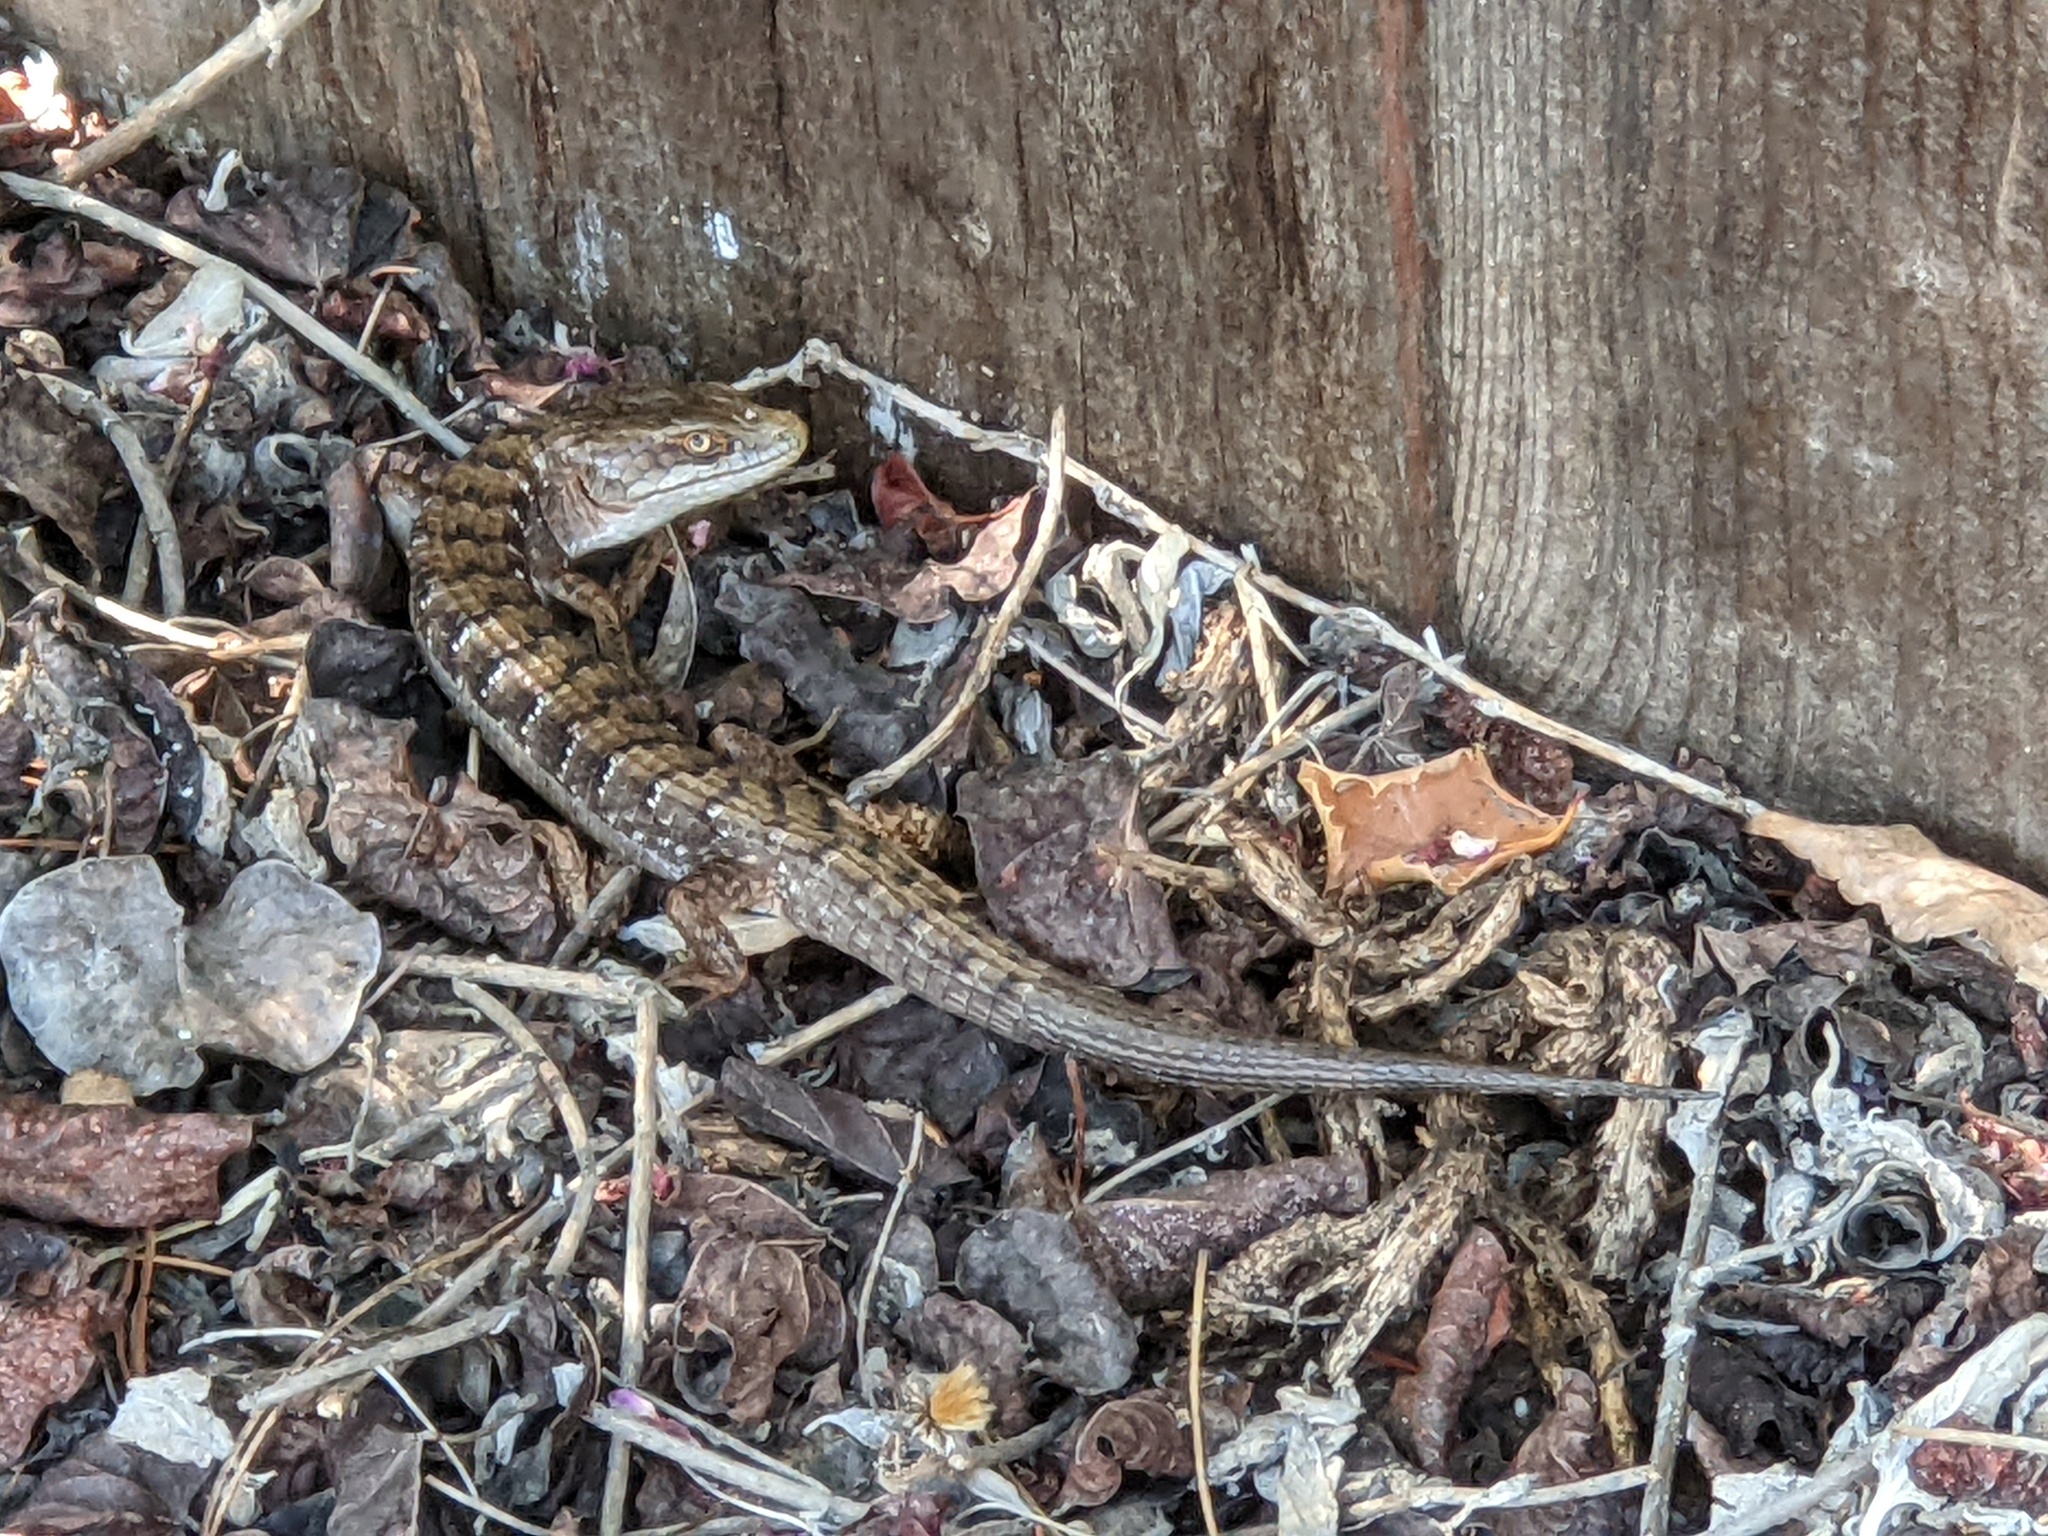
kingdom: Animalia
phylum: Chordata
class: Squamata
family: Anguidae
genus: Elgaria
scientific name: Elgaria multicarinata
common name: Southern alligator lizard
